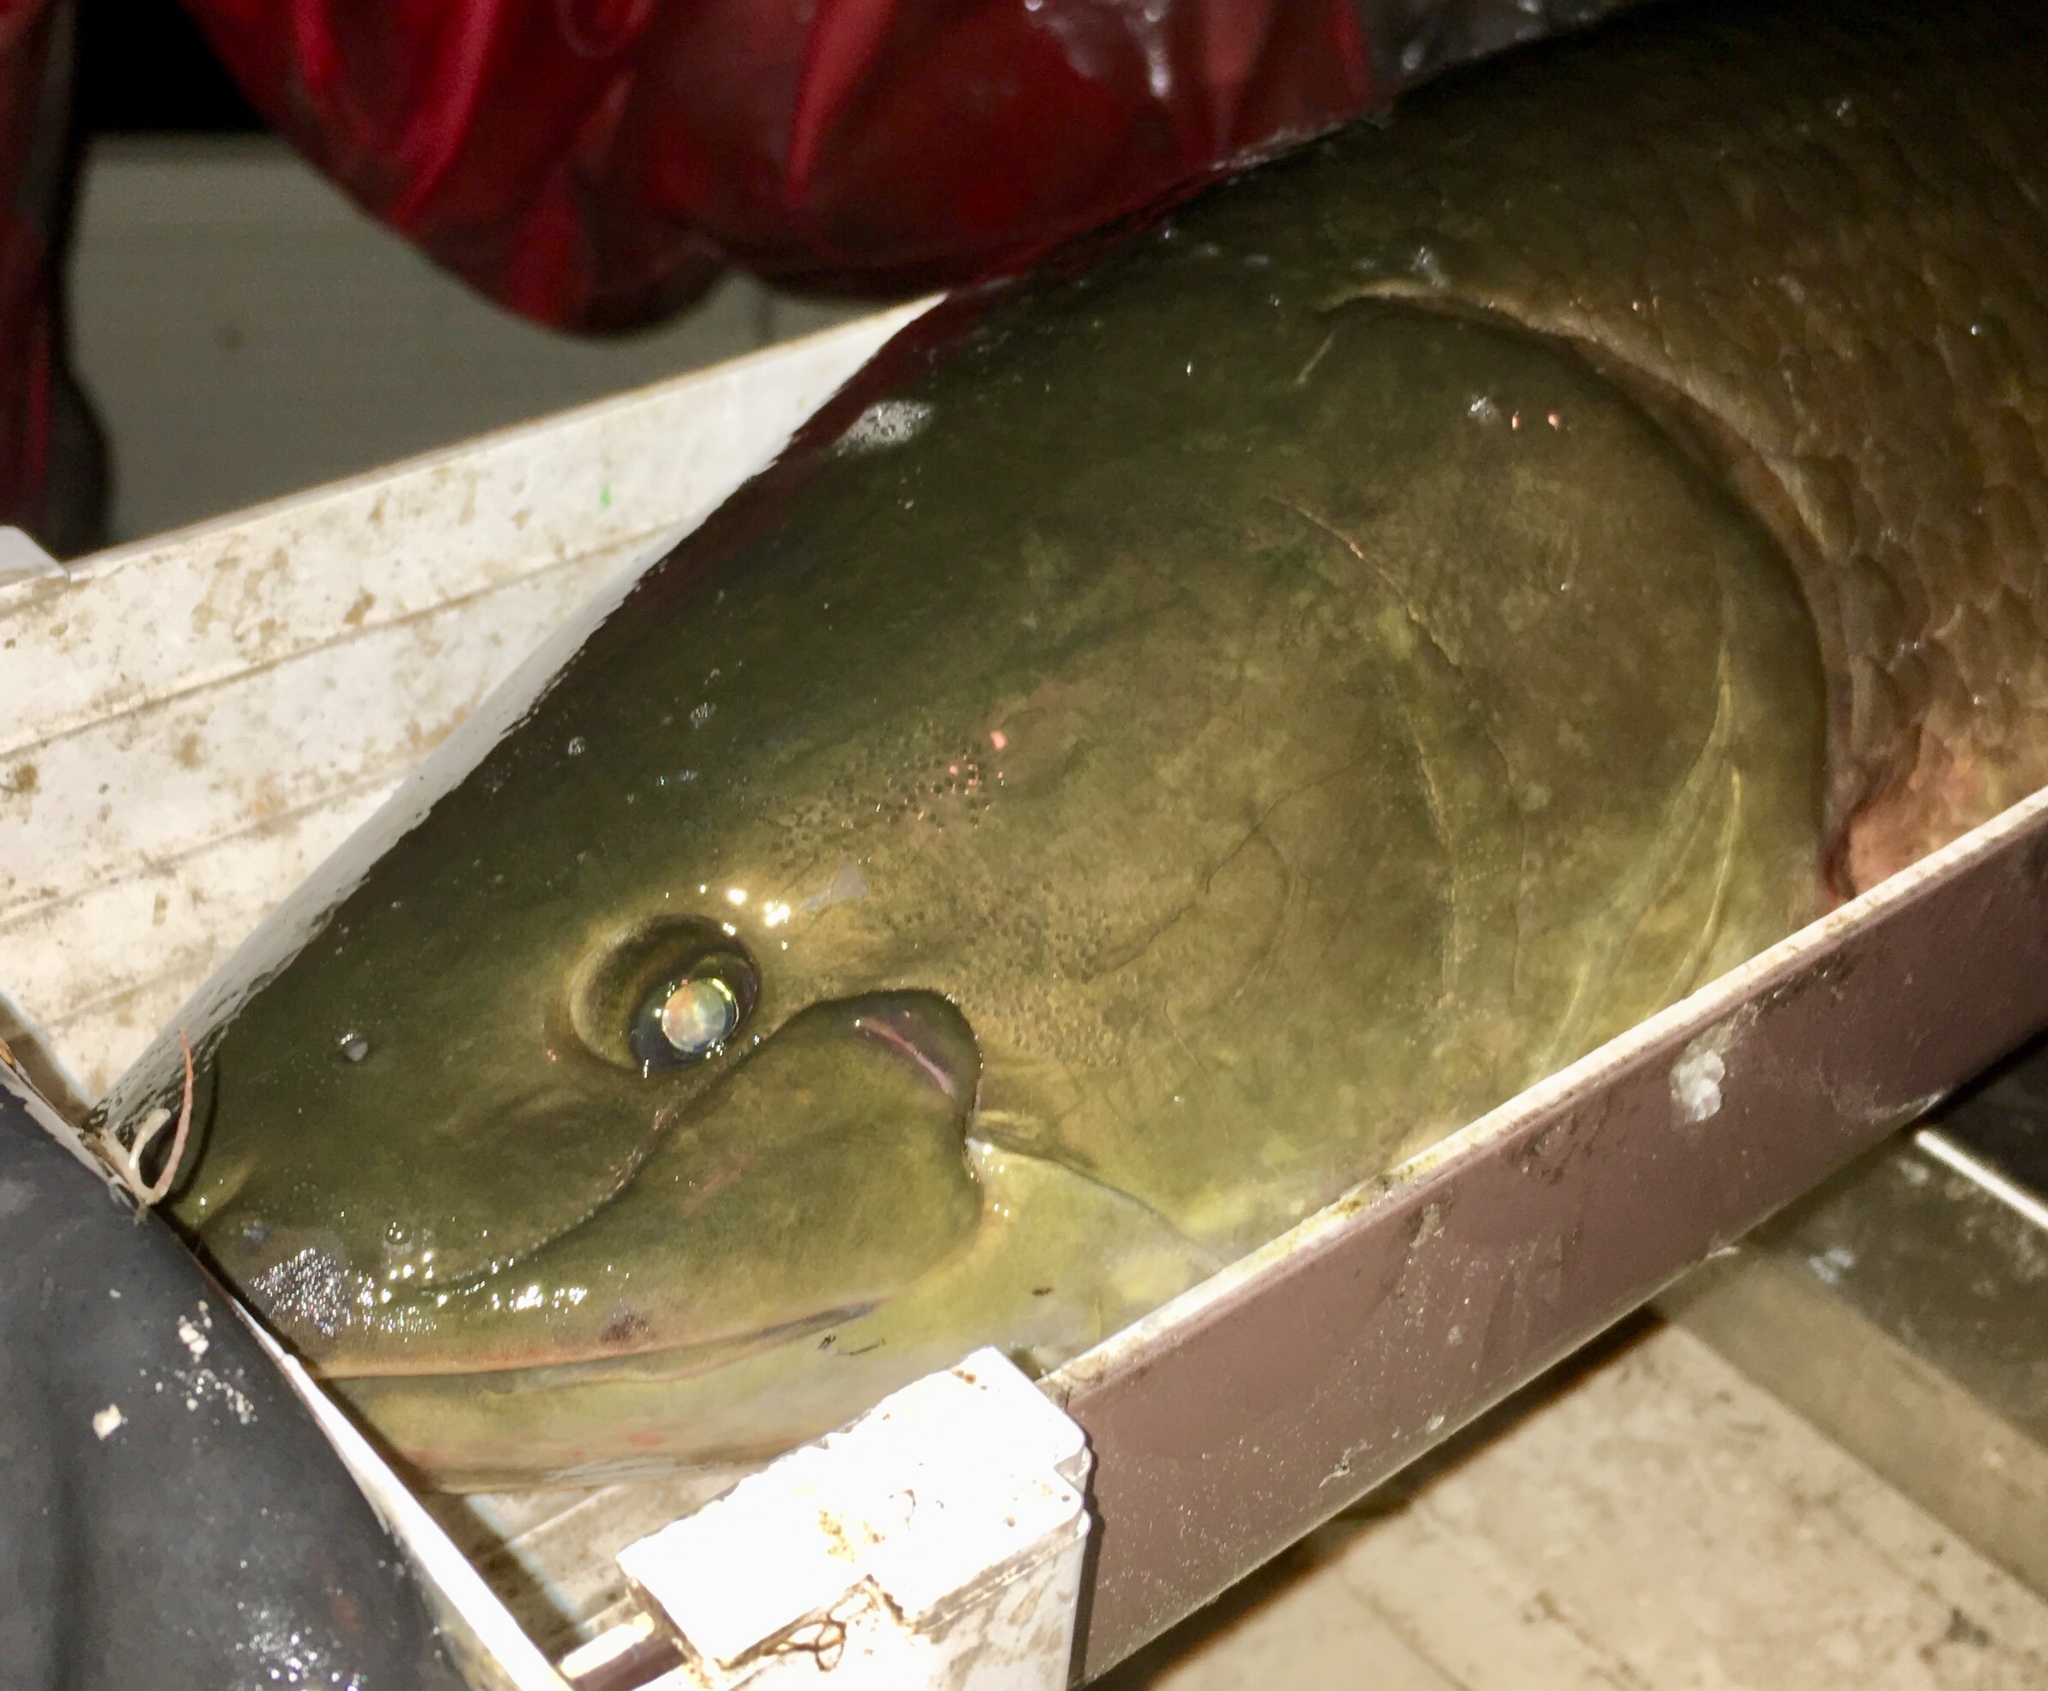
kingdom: Animalia
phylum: Chordata
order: Amiiformes
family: Amiidae
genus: Amia
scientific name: Amia calva
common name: Bowfin
